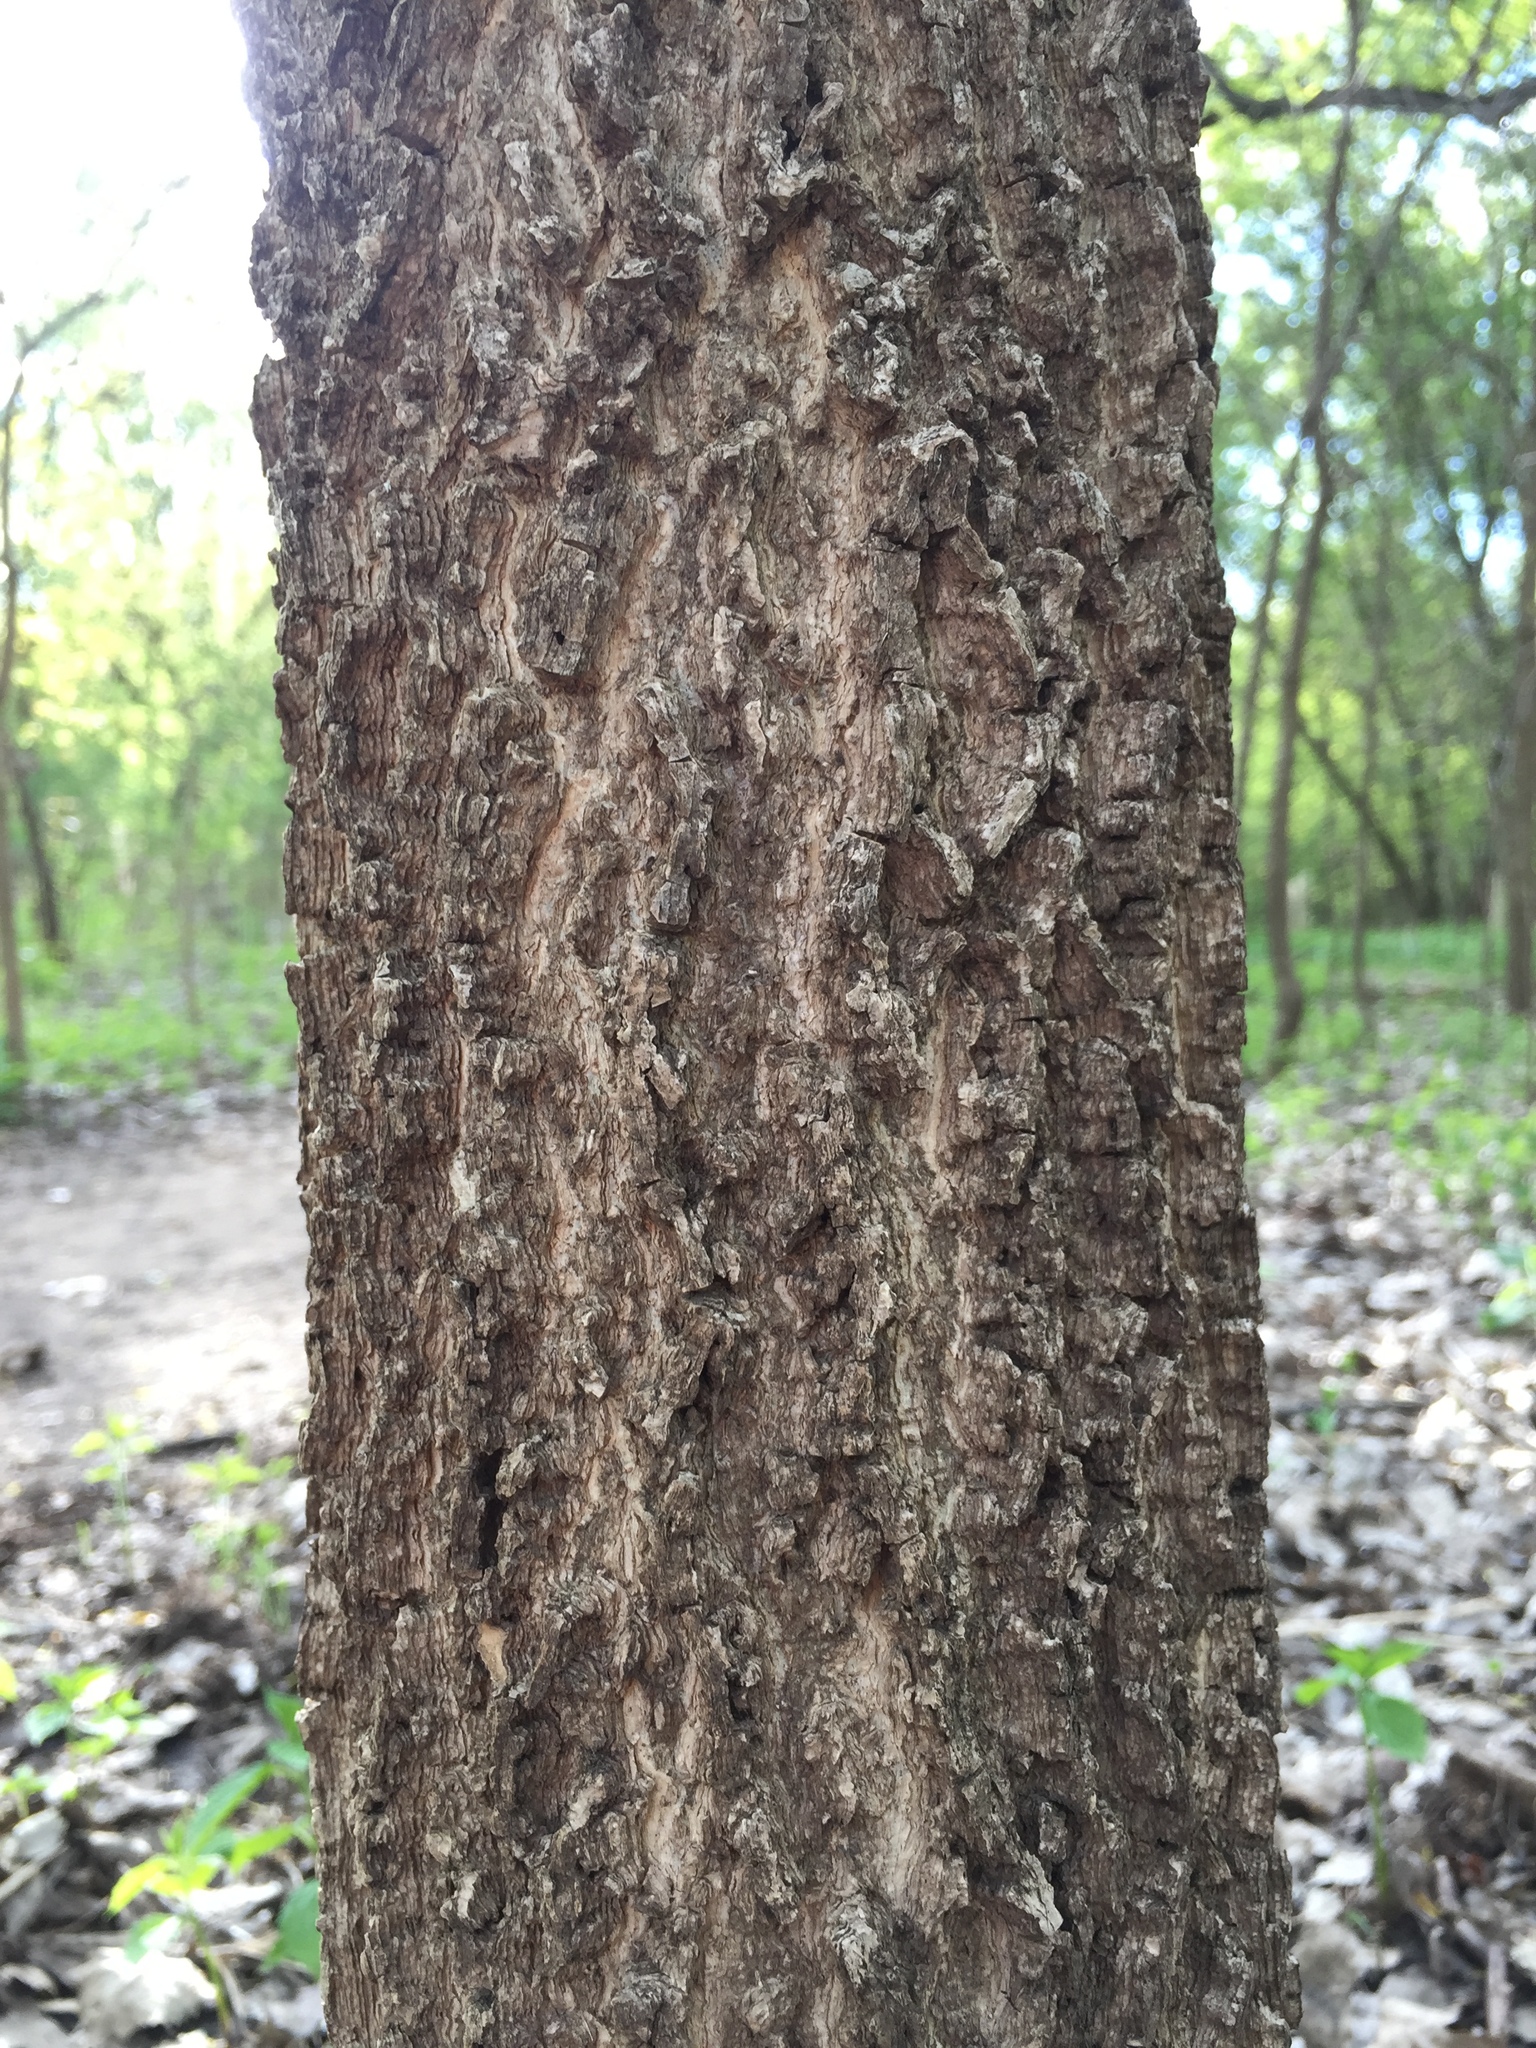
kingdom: Plantae
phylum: Tracheophyta
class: Magnoliopsida
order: Rosales
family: Cannabaceae
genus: Celtis
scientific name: Celtis occidentalis
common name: Common hackberry
